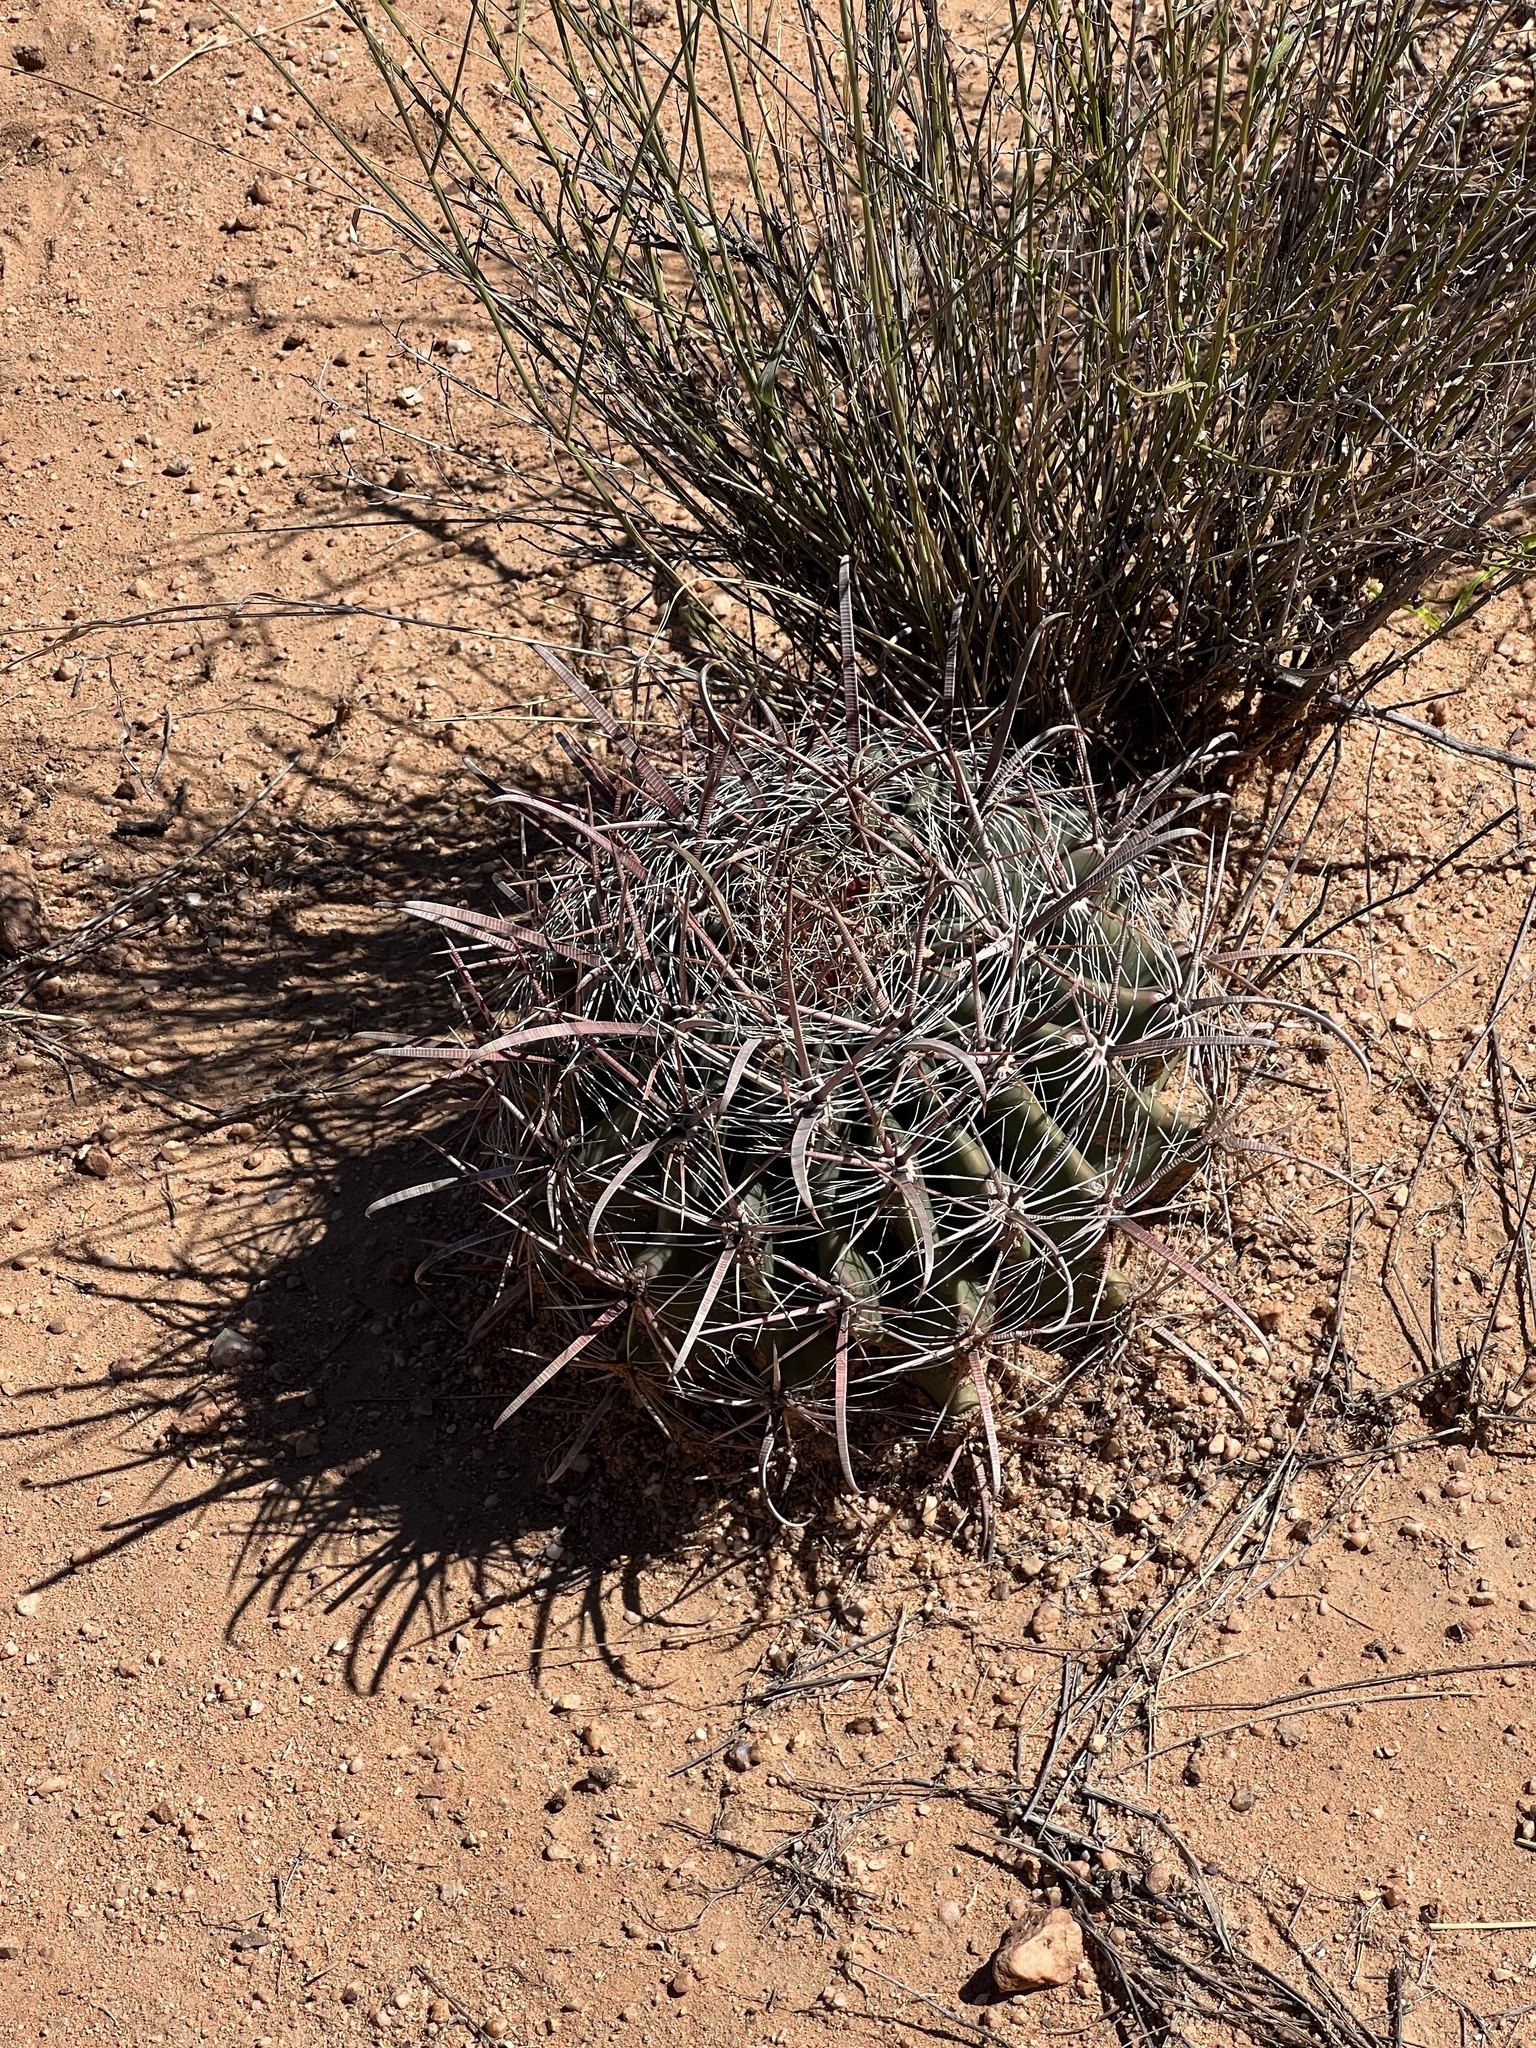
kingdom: Plantae
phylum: Tracheophyta
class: Magnoliopsida
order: Caryophyllales
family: Cactaceae
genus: Ferocactus
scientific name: Ferocactus wislizeni
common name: Candy barrel cactus
